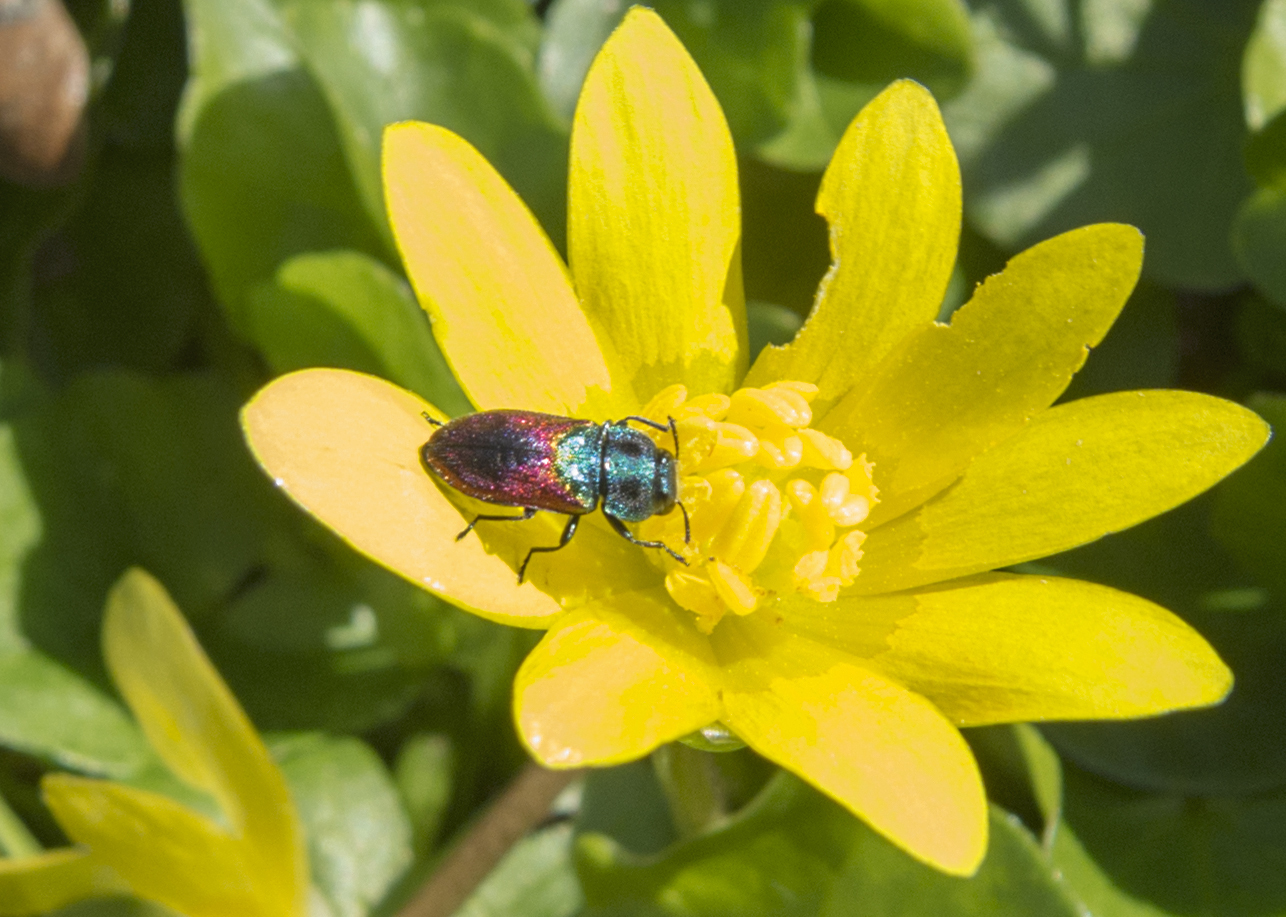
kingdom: Animalia
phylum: Arthropoda
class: Insecta
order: Coleoptera
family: Buprestidae
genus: Anthaxia
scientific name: Anthaxia salicis
